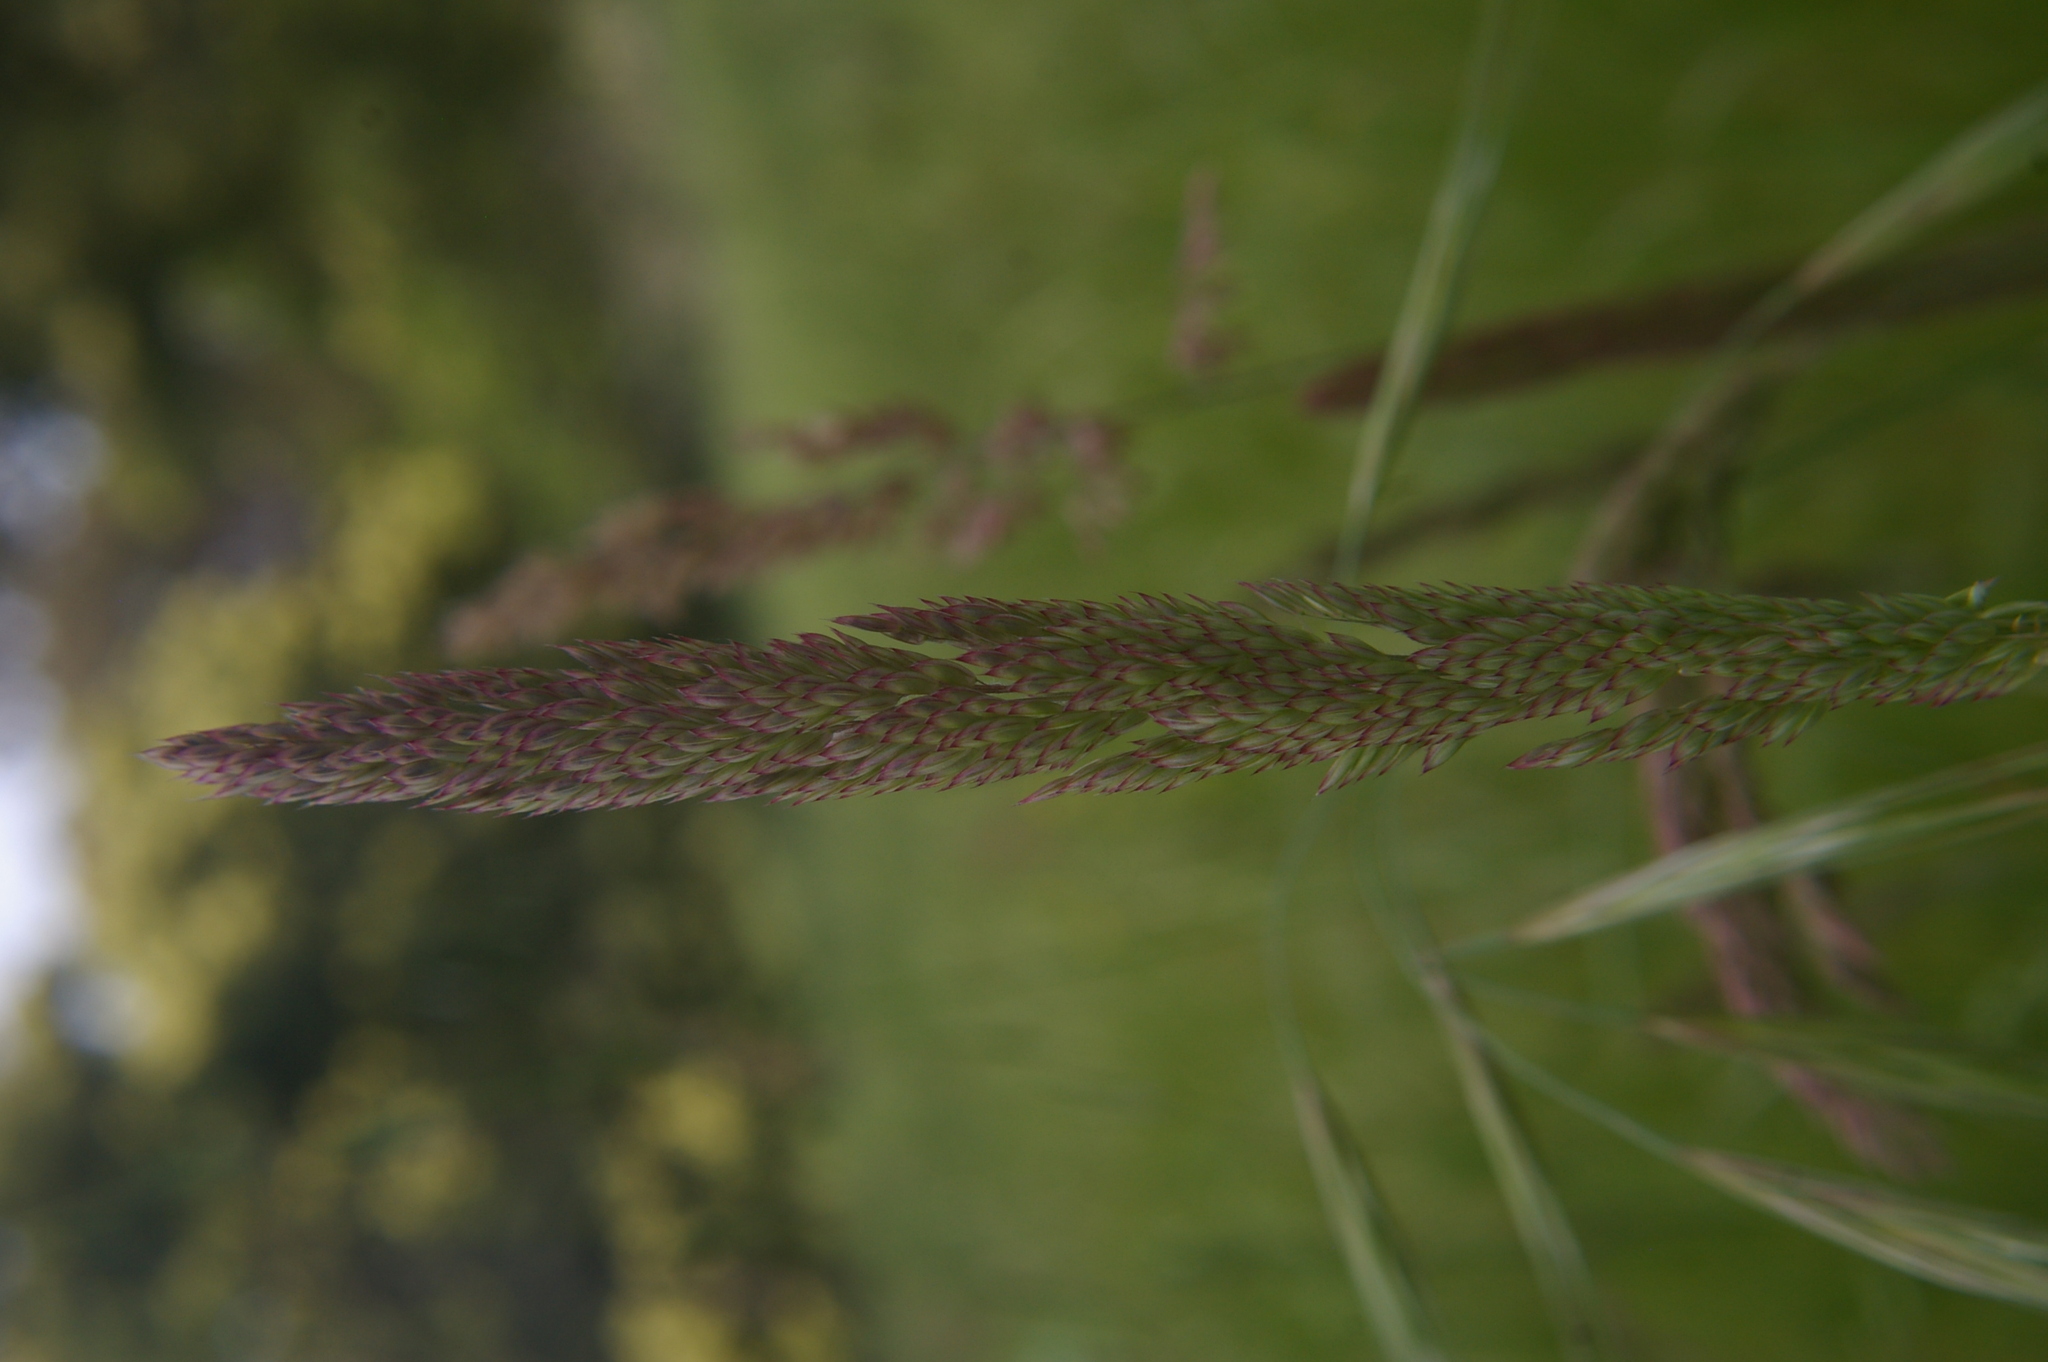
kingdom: Plantae
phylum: Tracheophyta
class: Liliopsida
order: Poales
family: Poaceae
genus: Holcus
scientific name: Holcus lanatus
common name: Yorkshire-fog
